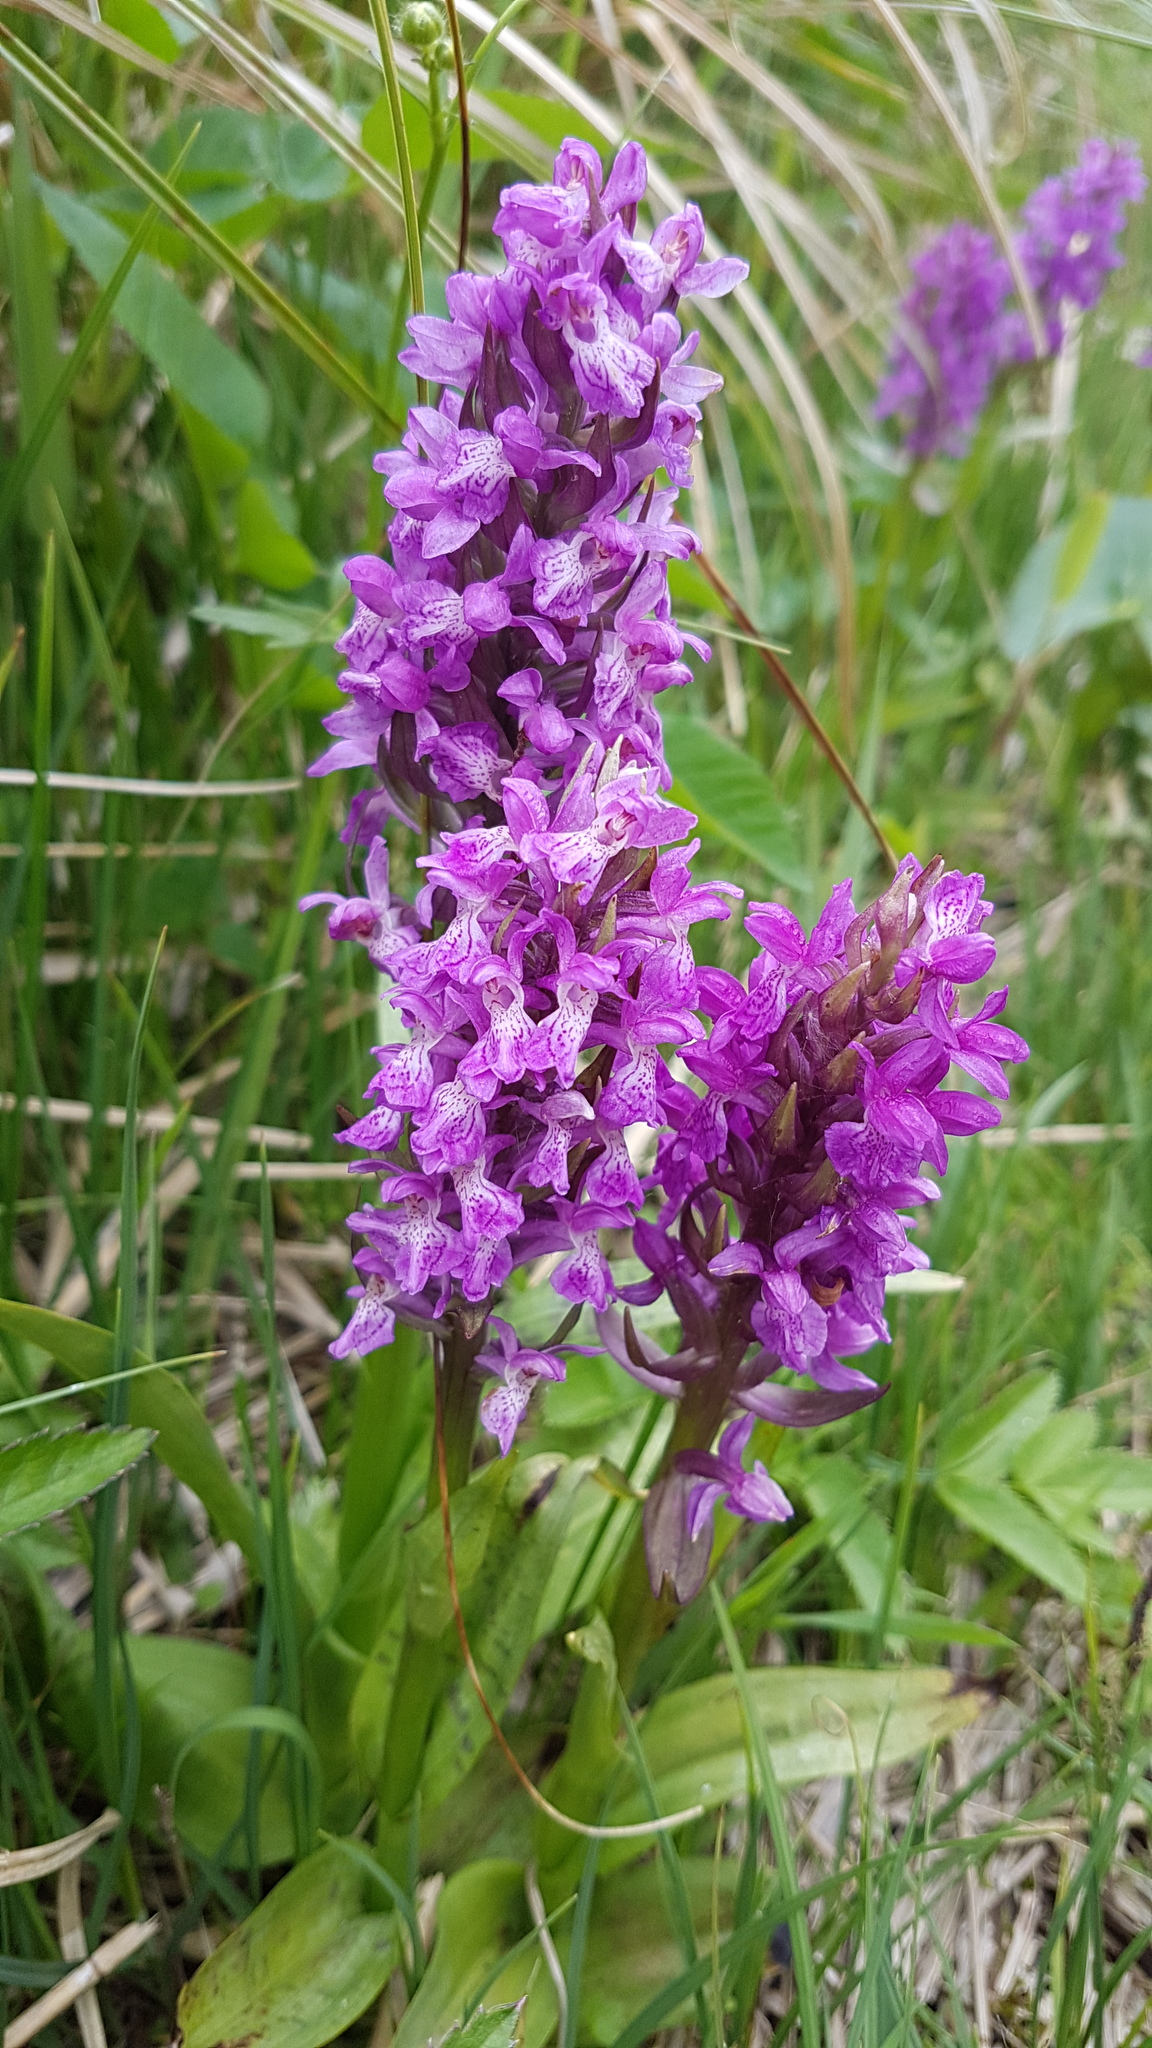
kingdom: Plantae
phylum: Tracheophyta
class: Liliopsida
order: Asparagales
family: Orchidaceae
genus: Dactylorhiza
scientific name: Dactylorhiza majalis
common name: Marsh orchid
